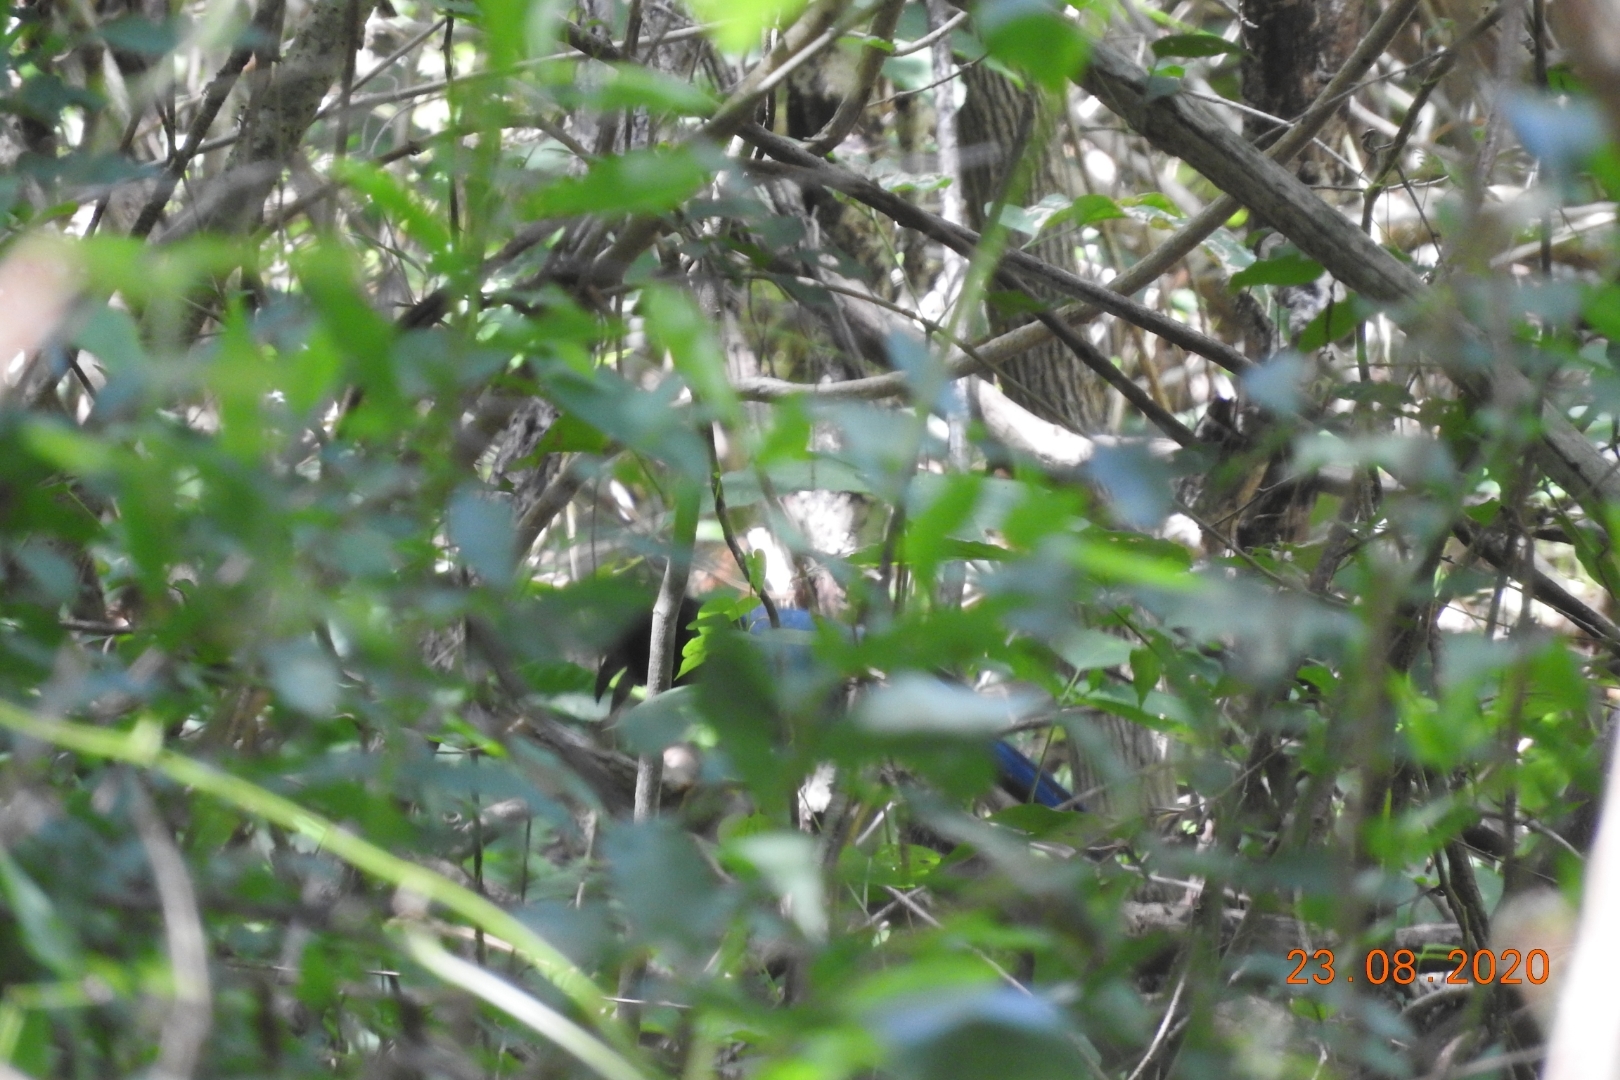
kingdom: Animalia
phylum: Chordata
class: Aves
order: Passeriformes
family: Corvidae
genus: Cyanocorax
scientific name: Cyanocorax yucatanicus
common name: Yucatan jay
